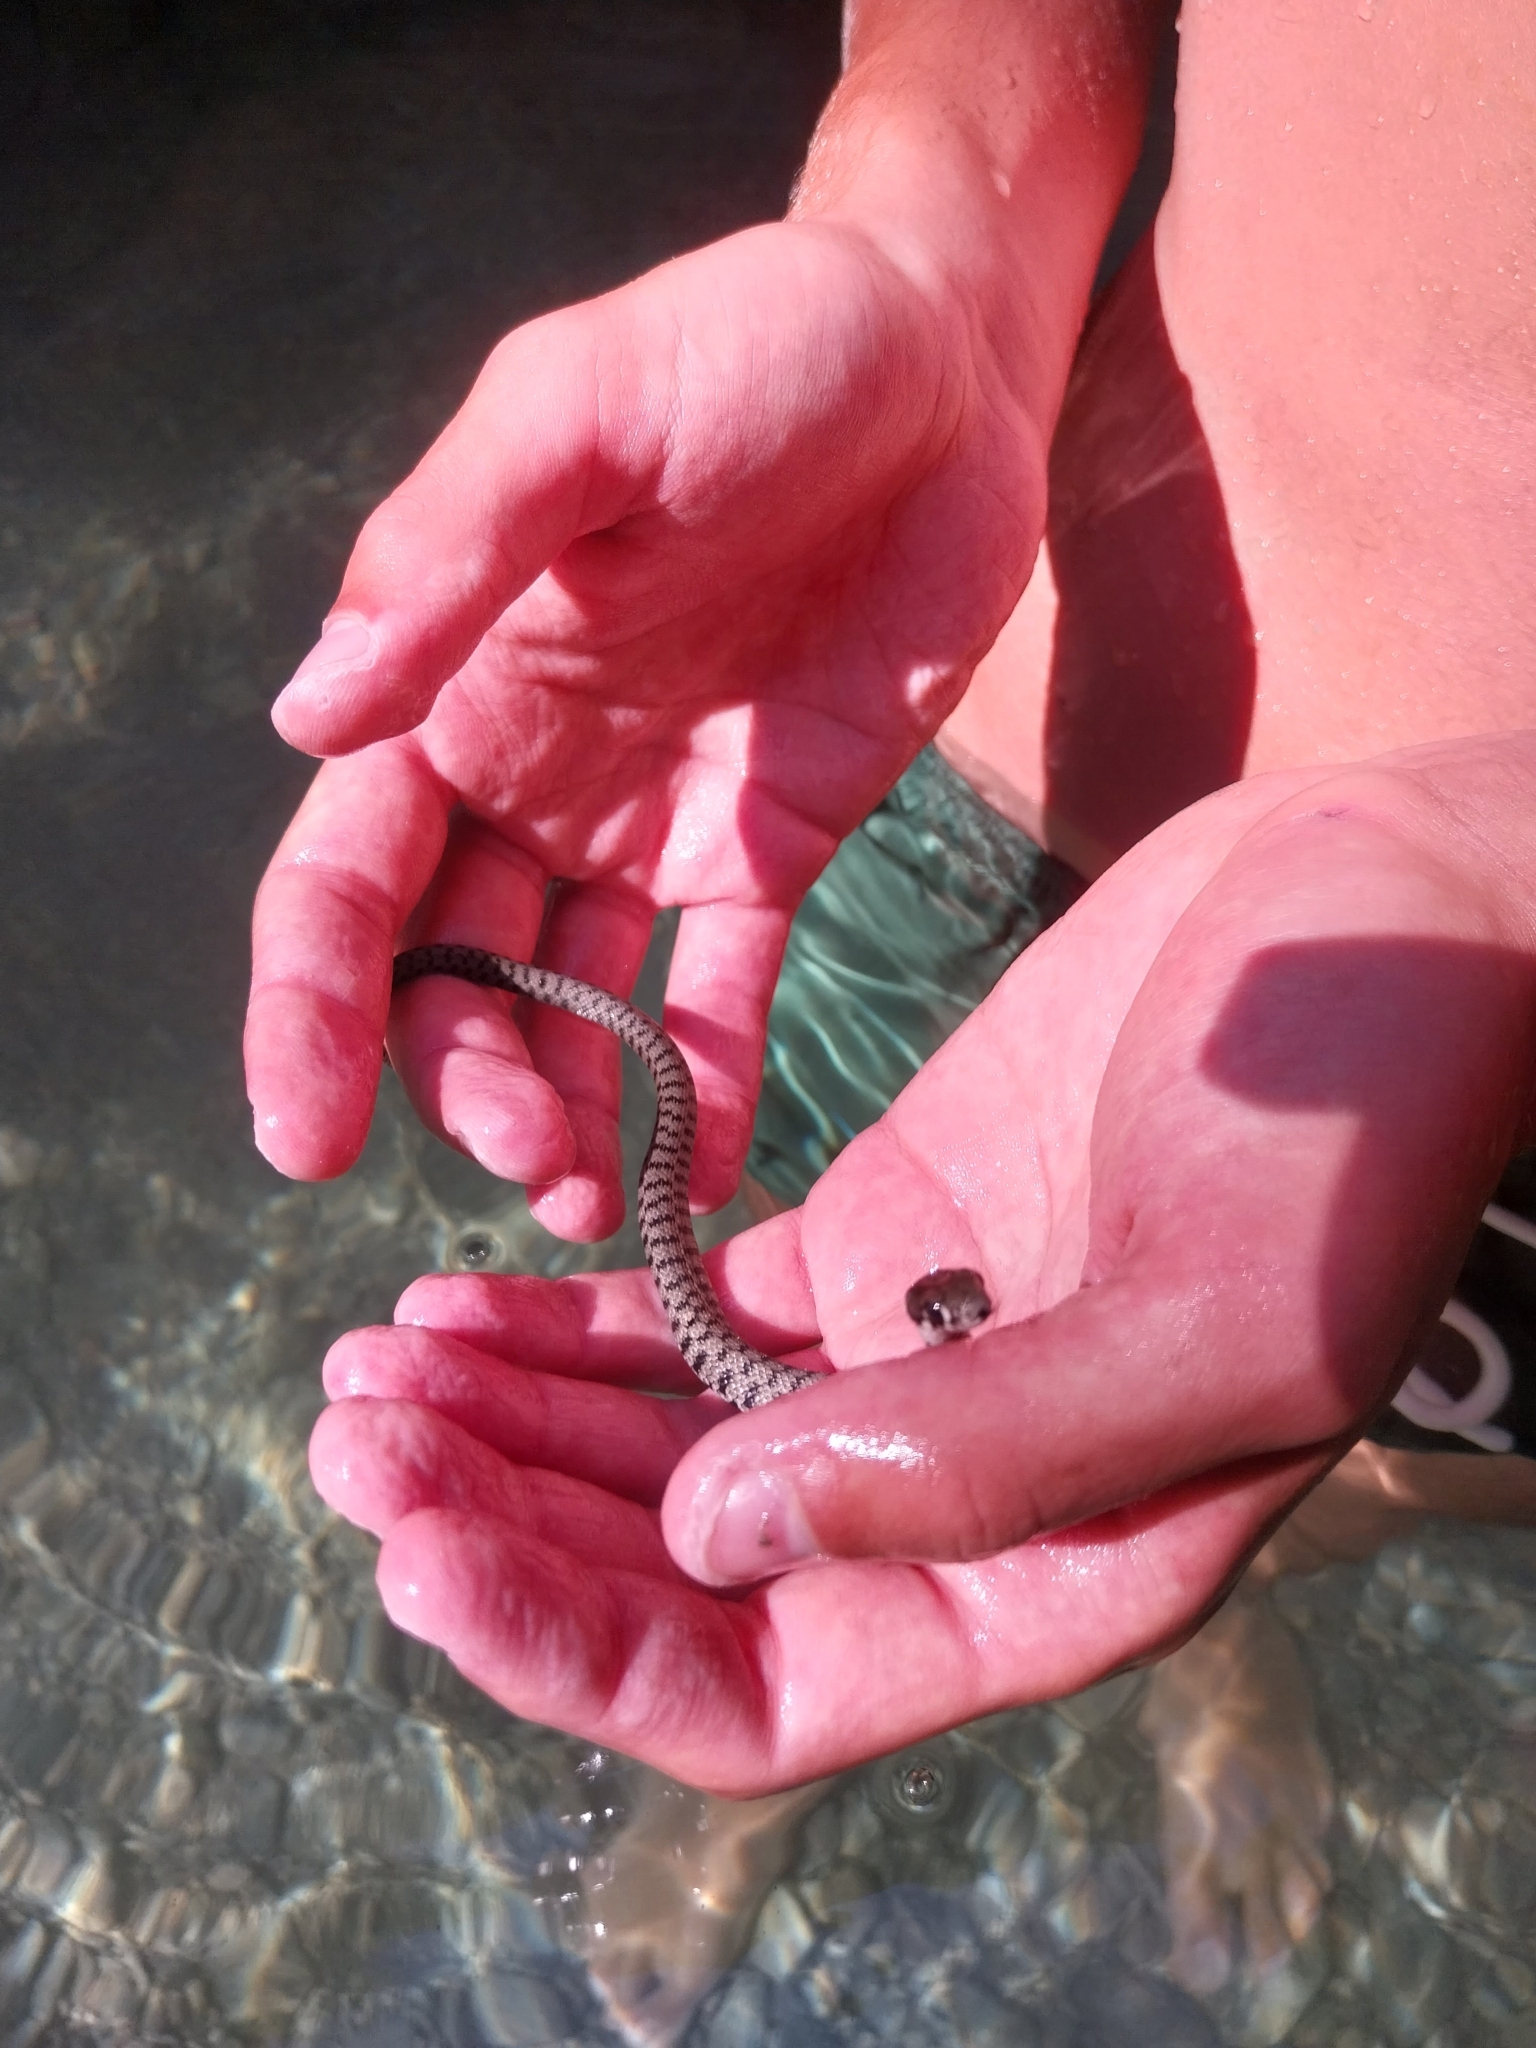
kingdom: Animalia
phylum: Chordata
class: Squamata
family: Colubridae
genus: Natrix
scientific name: Natrix helvetica
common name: Banded grass snake
